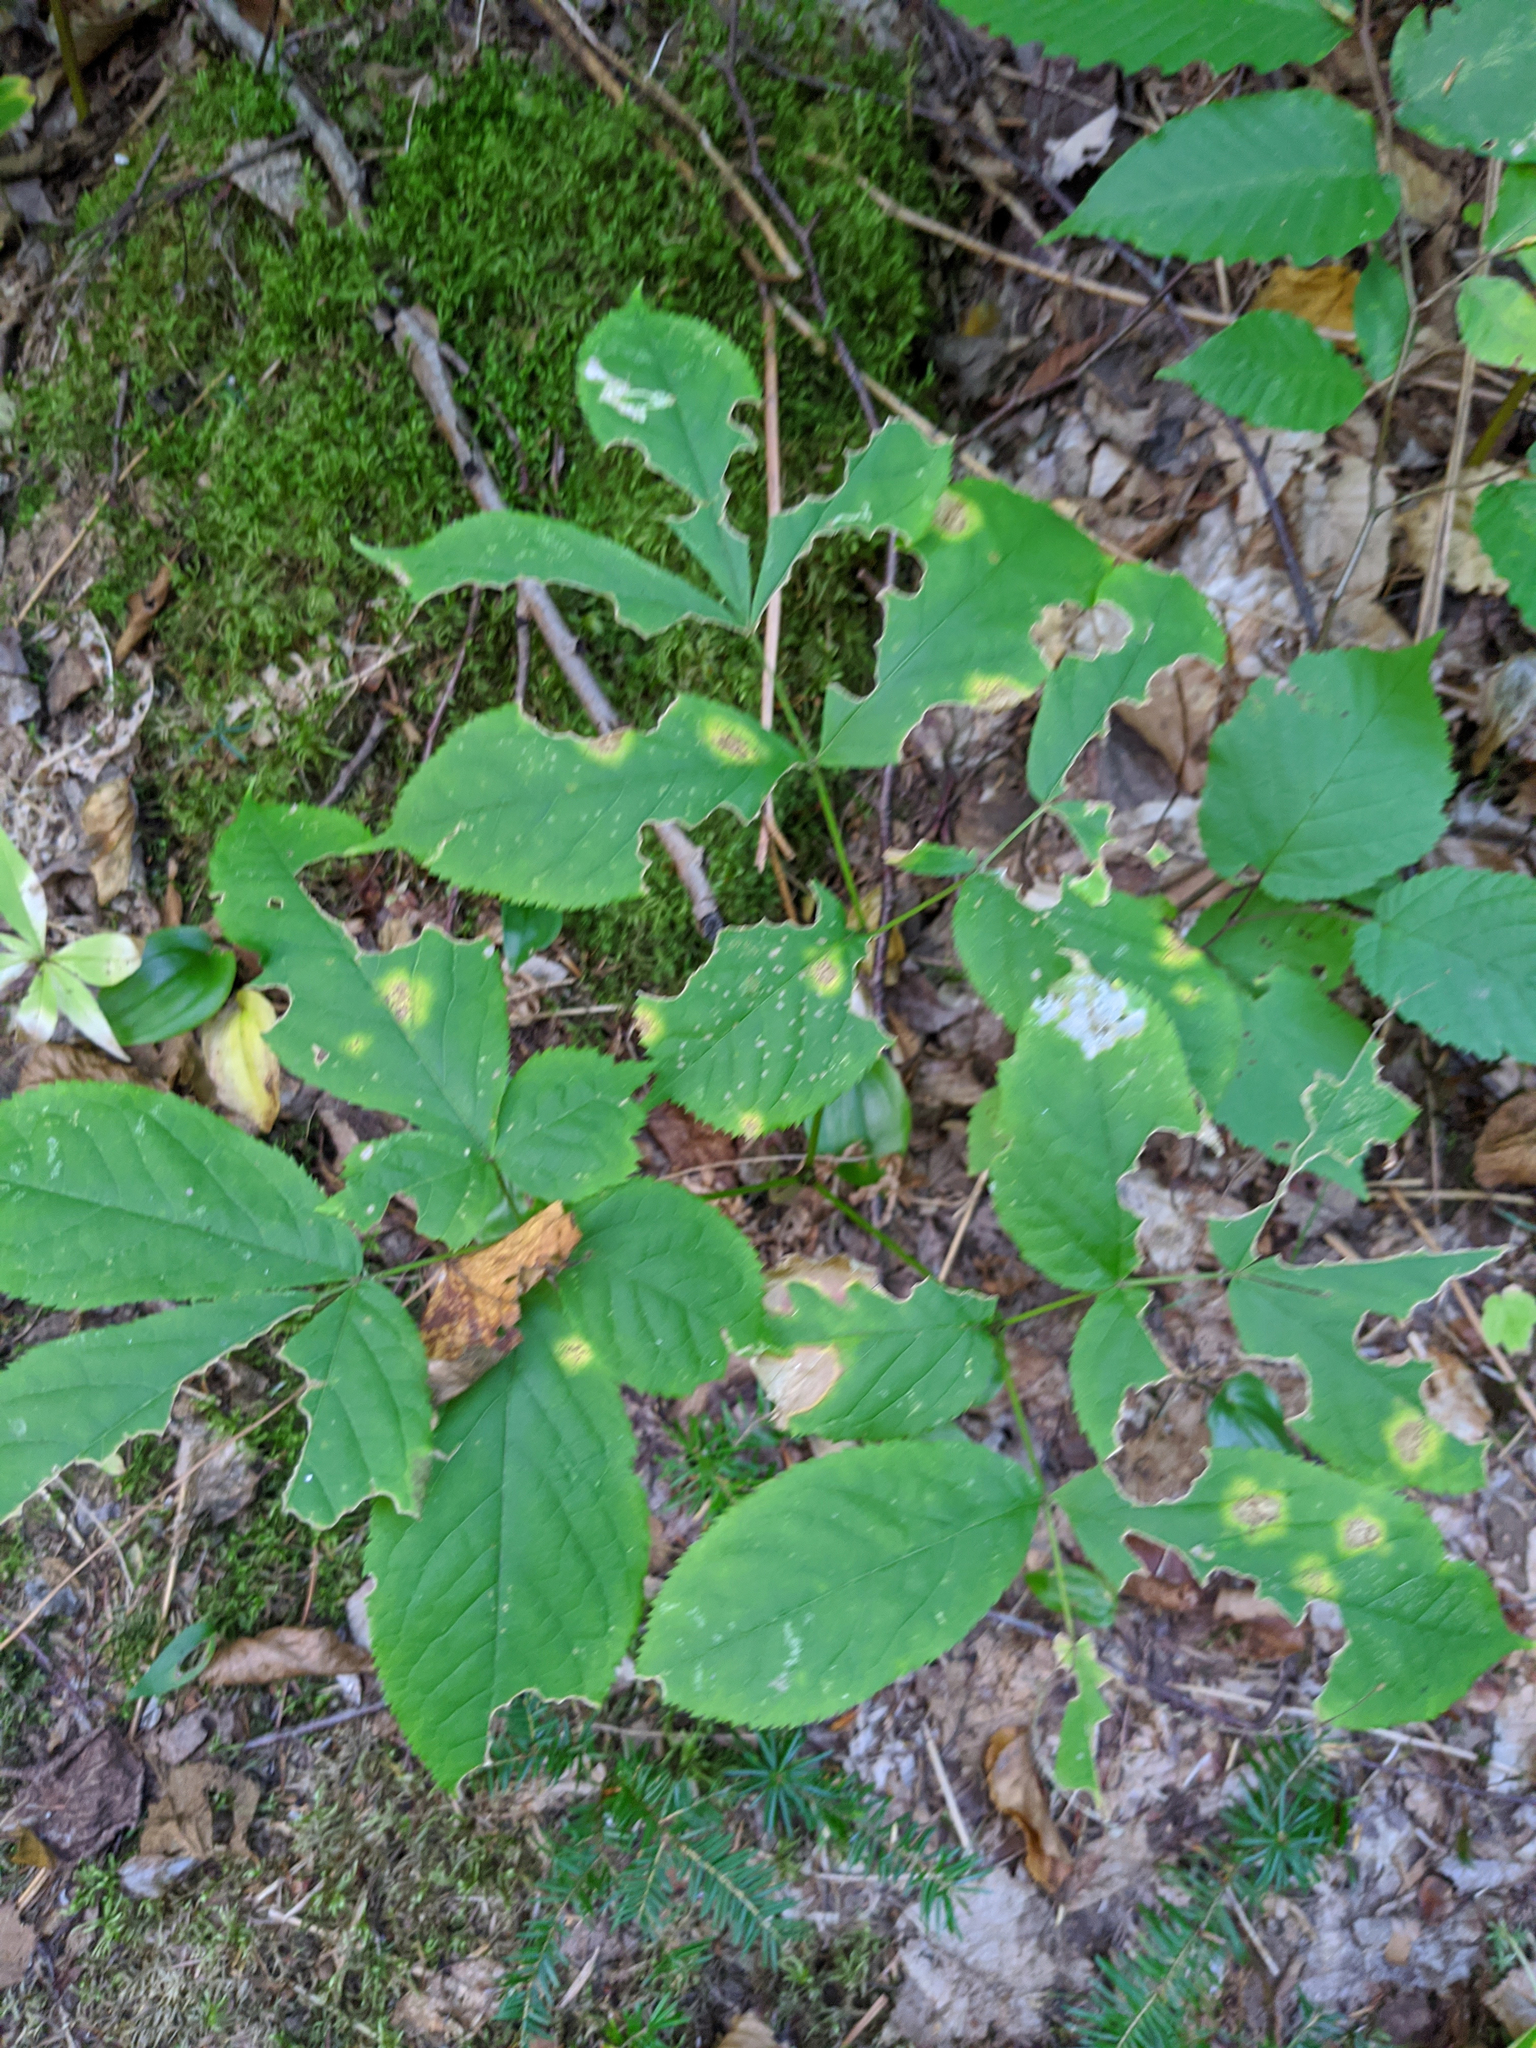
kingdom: Plantae
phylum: Tracheophyta
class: Magnoliopsida
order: Apiales
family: Araliaceae
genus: Aralia
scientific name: Aralia nudicaulis
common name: Wild sarsaparilla
